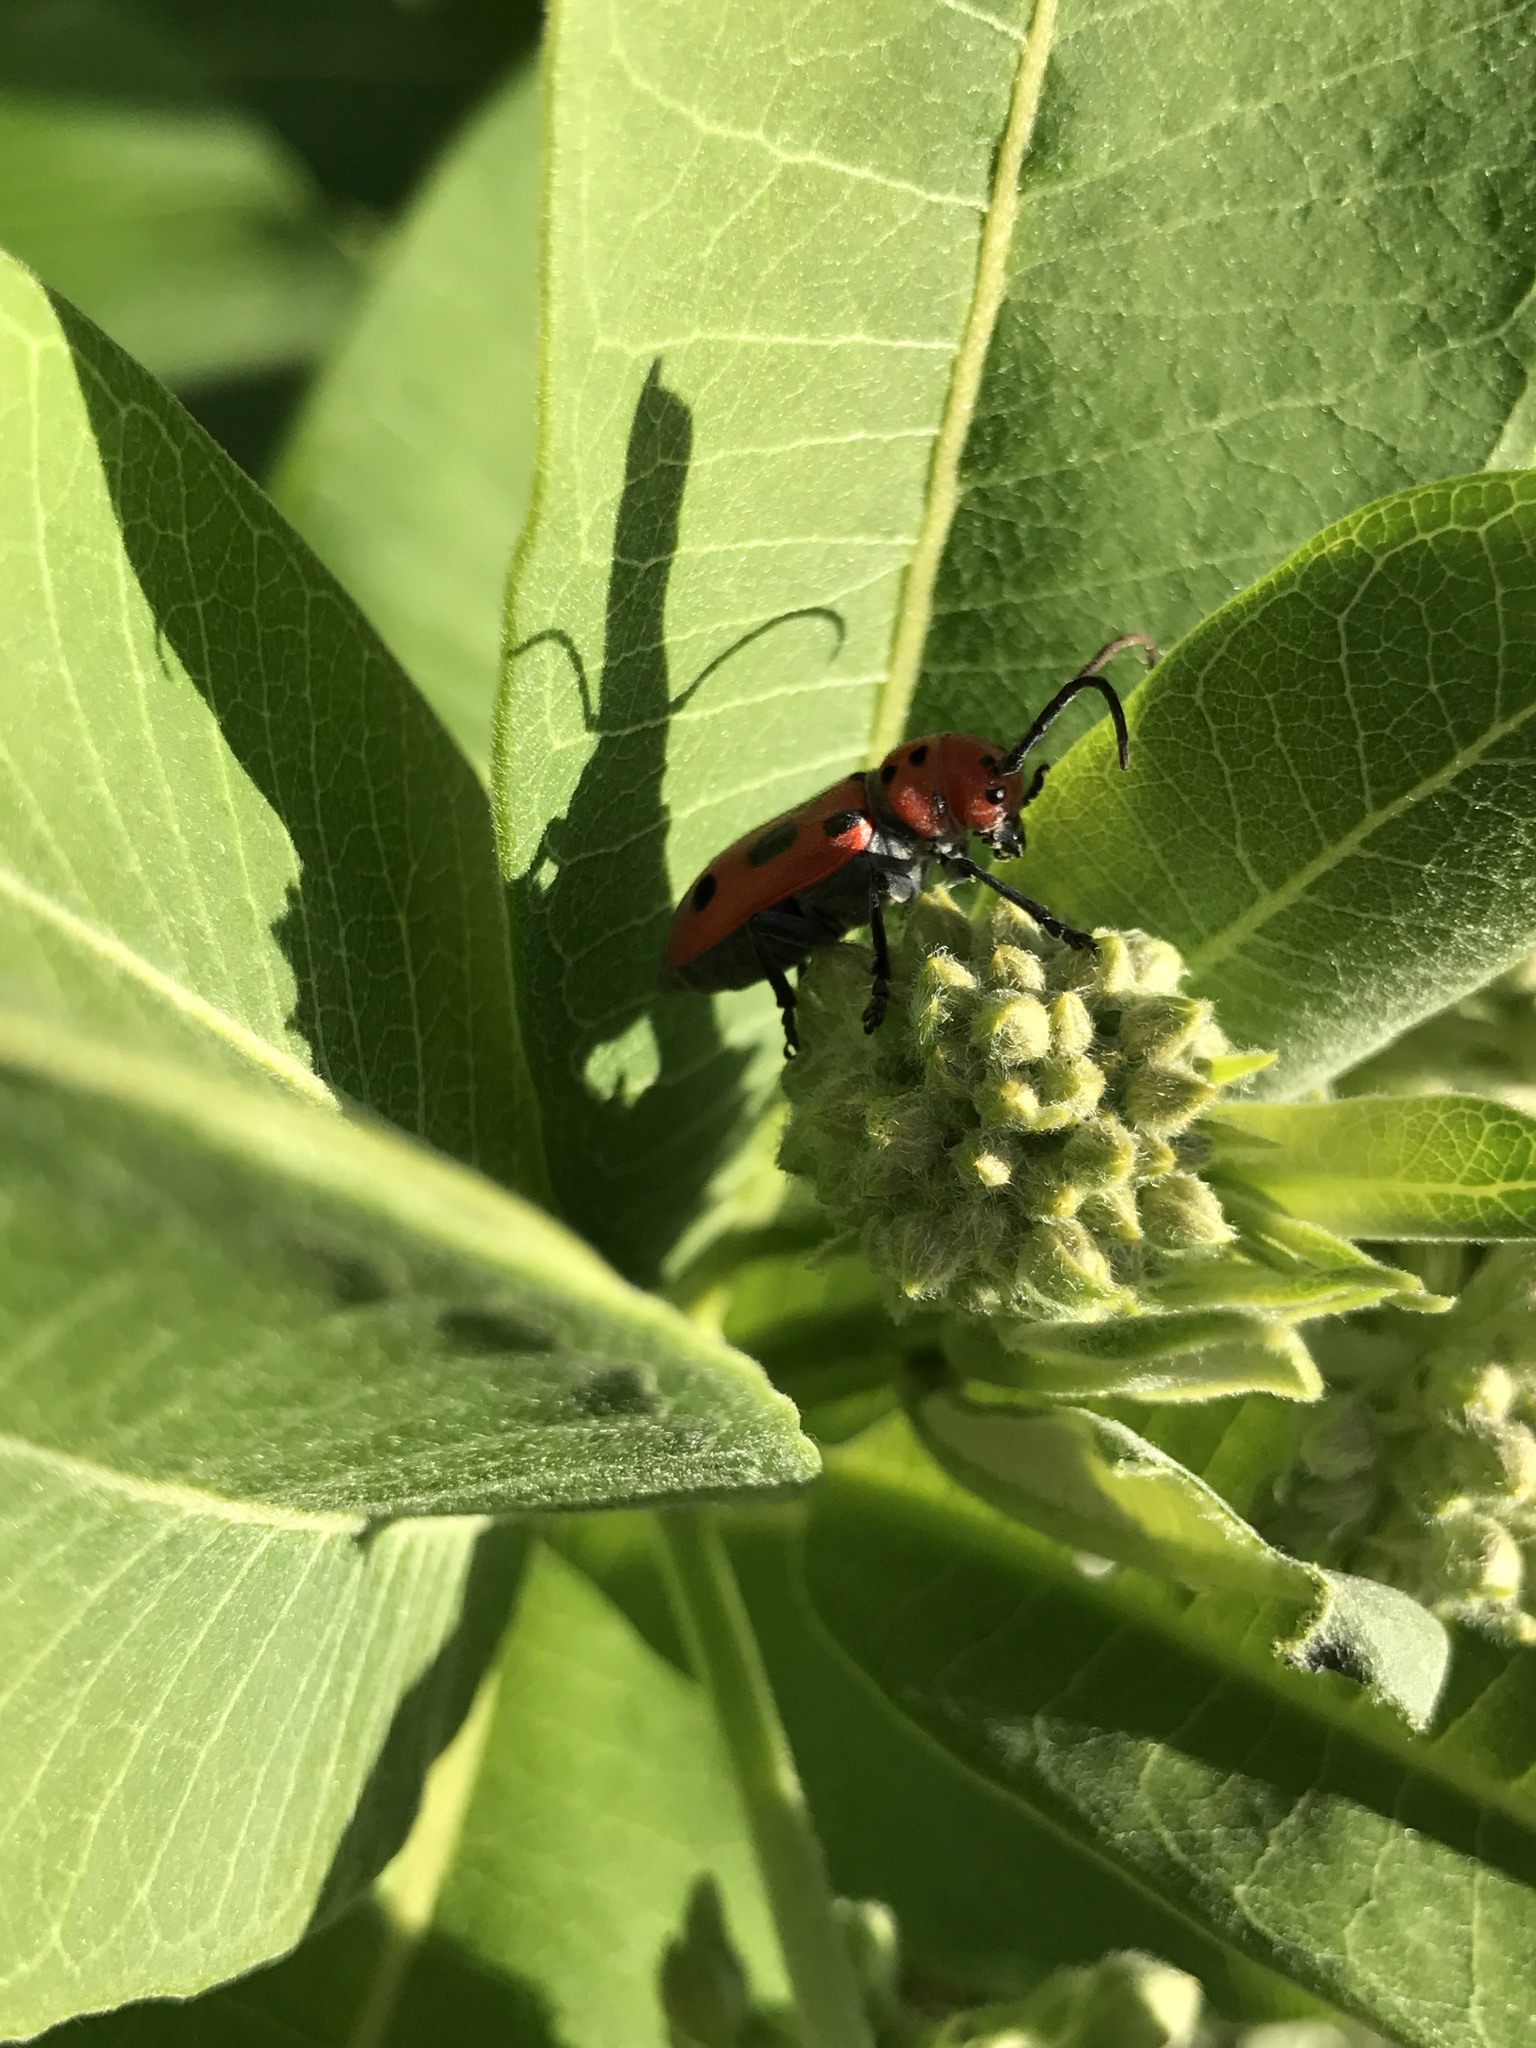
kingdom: Animalia
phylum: Arthropoda
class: Insecta
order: Coleoptera
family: Cerambycidae
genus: Tetraopes
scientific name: Tetraopes tetrophthalmus
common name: Red milkweed beetle
